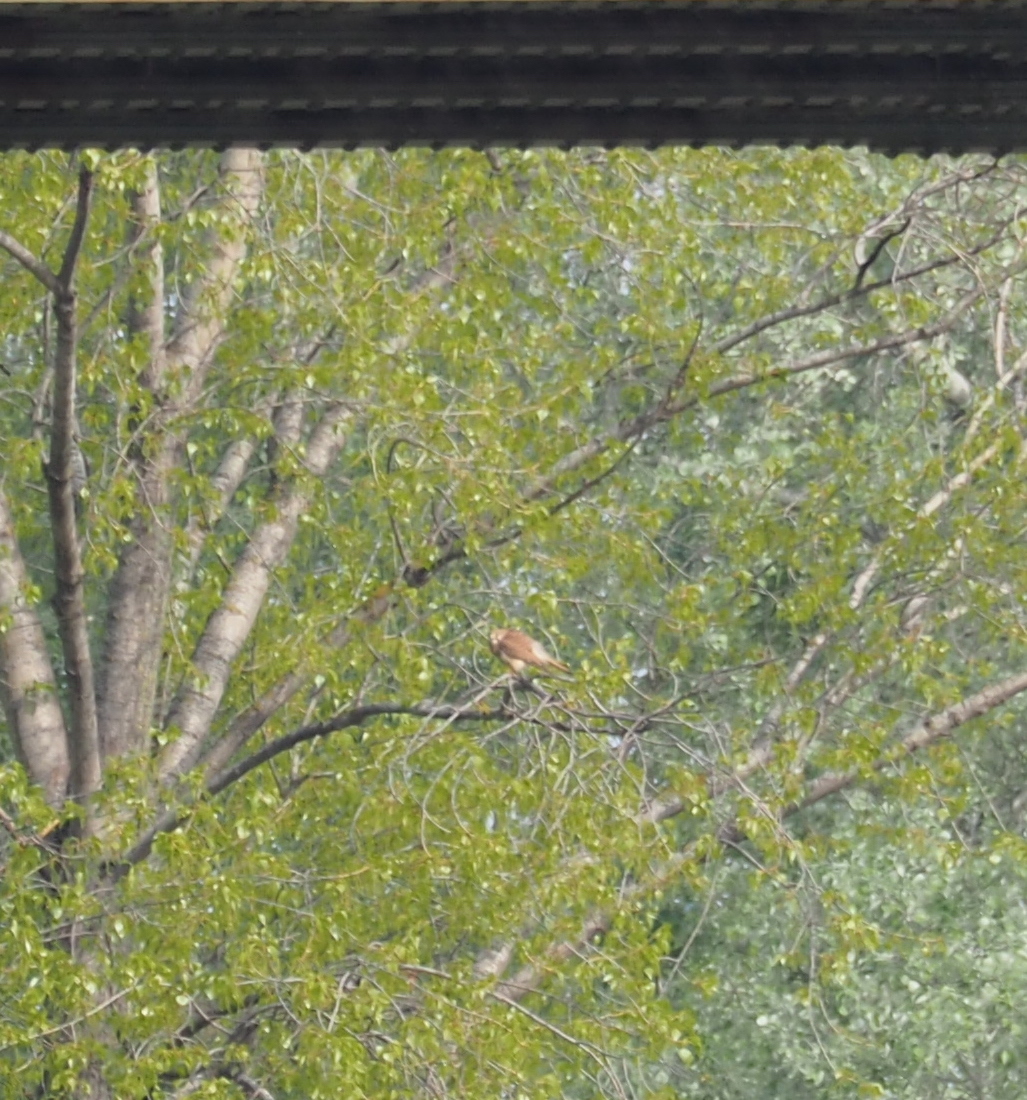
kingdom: Animalia
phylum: Chordata
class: Aves
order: Falconiformes
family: Falconidae
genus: Falco
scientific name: Falco tinnunculus
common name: Common kestrel
